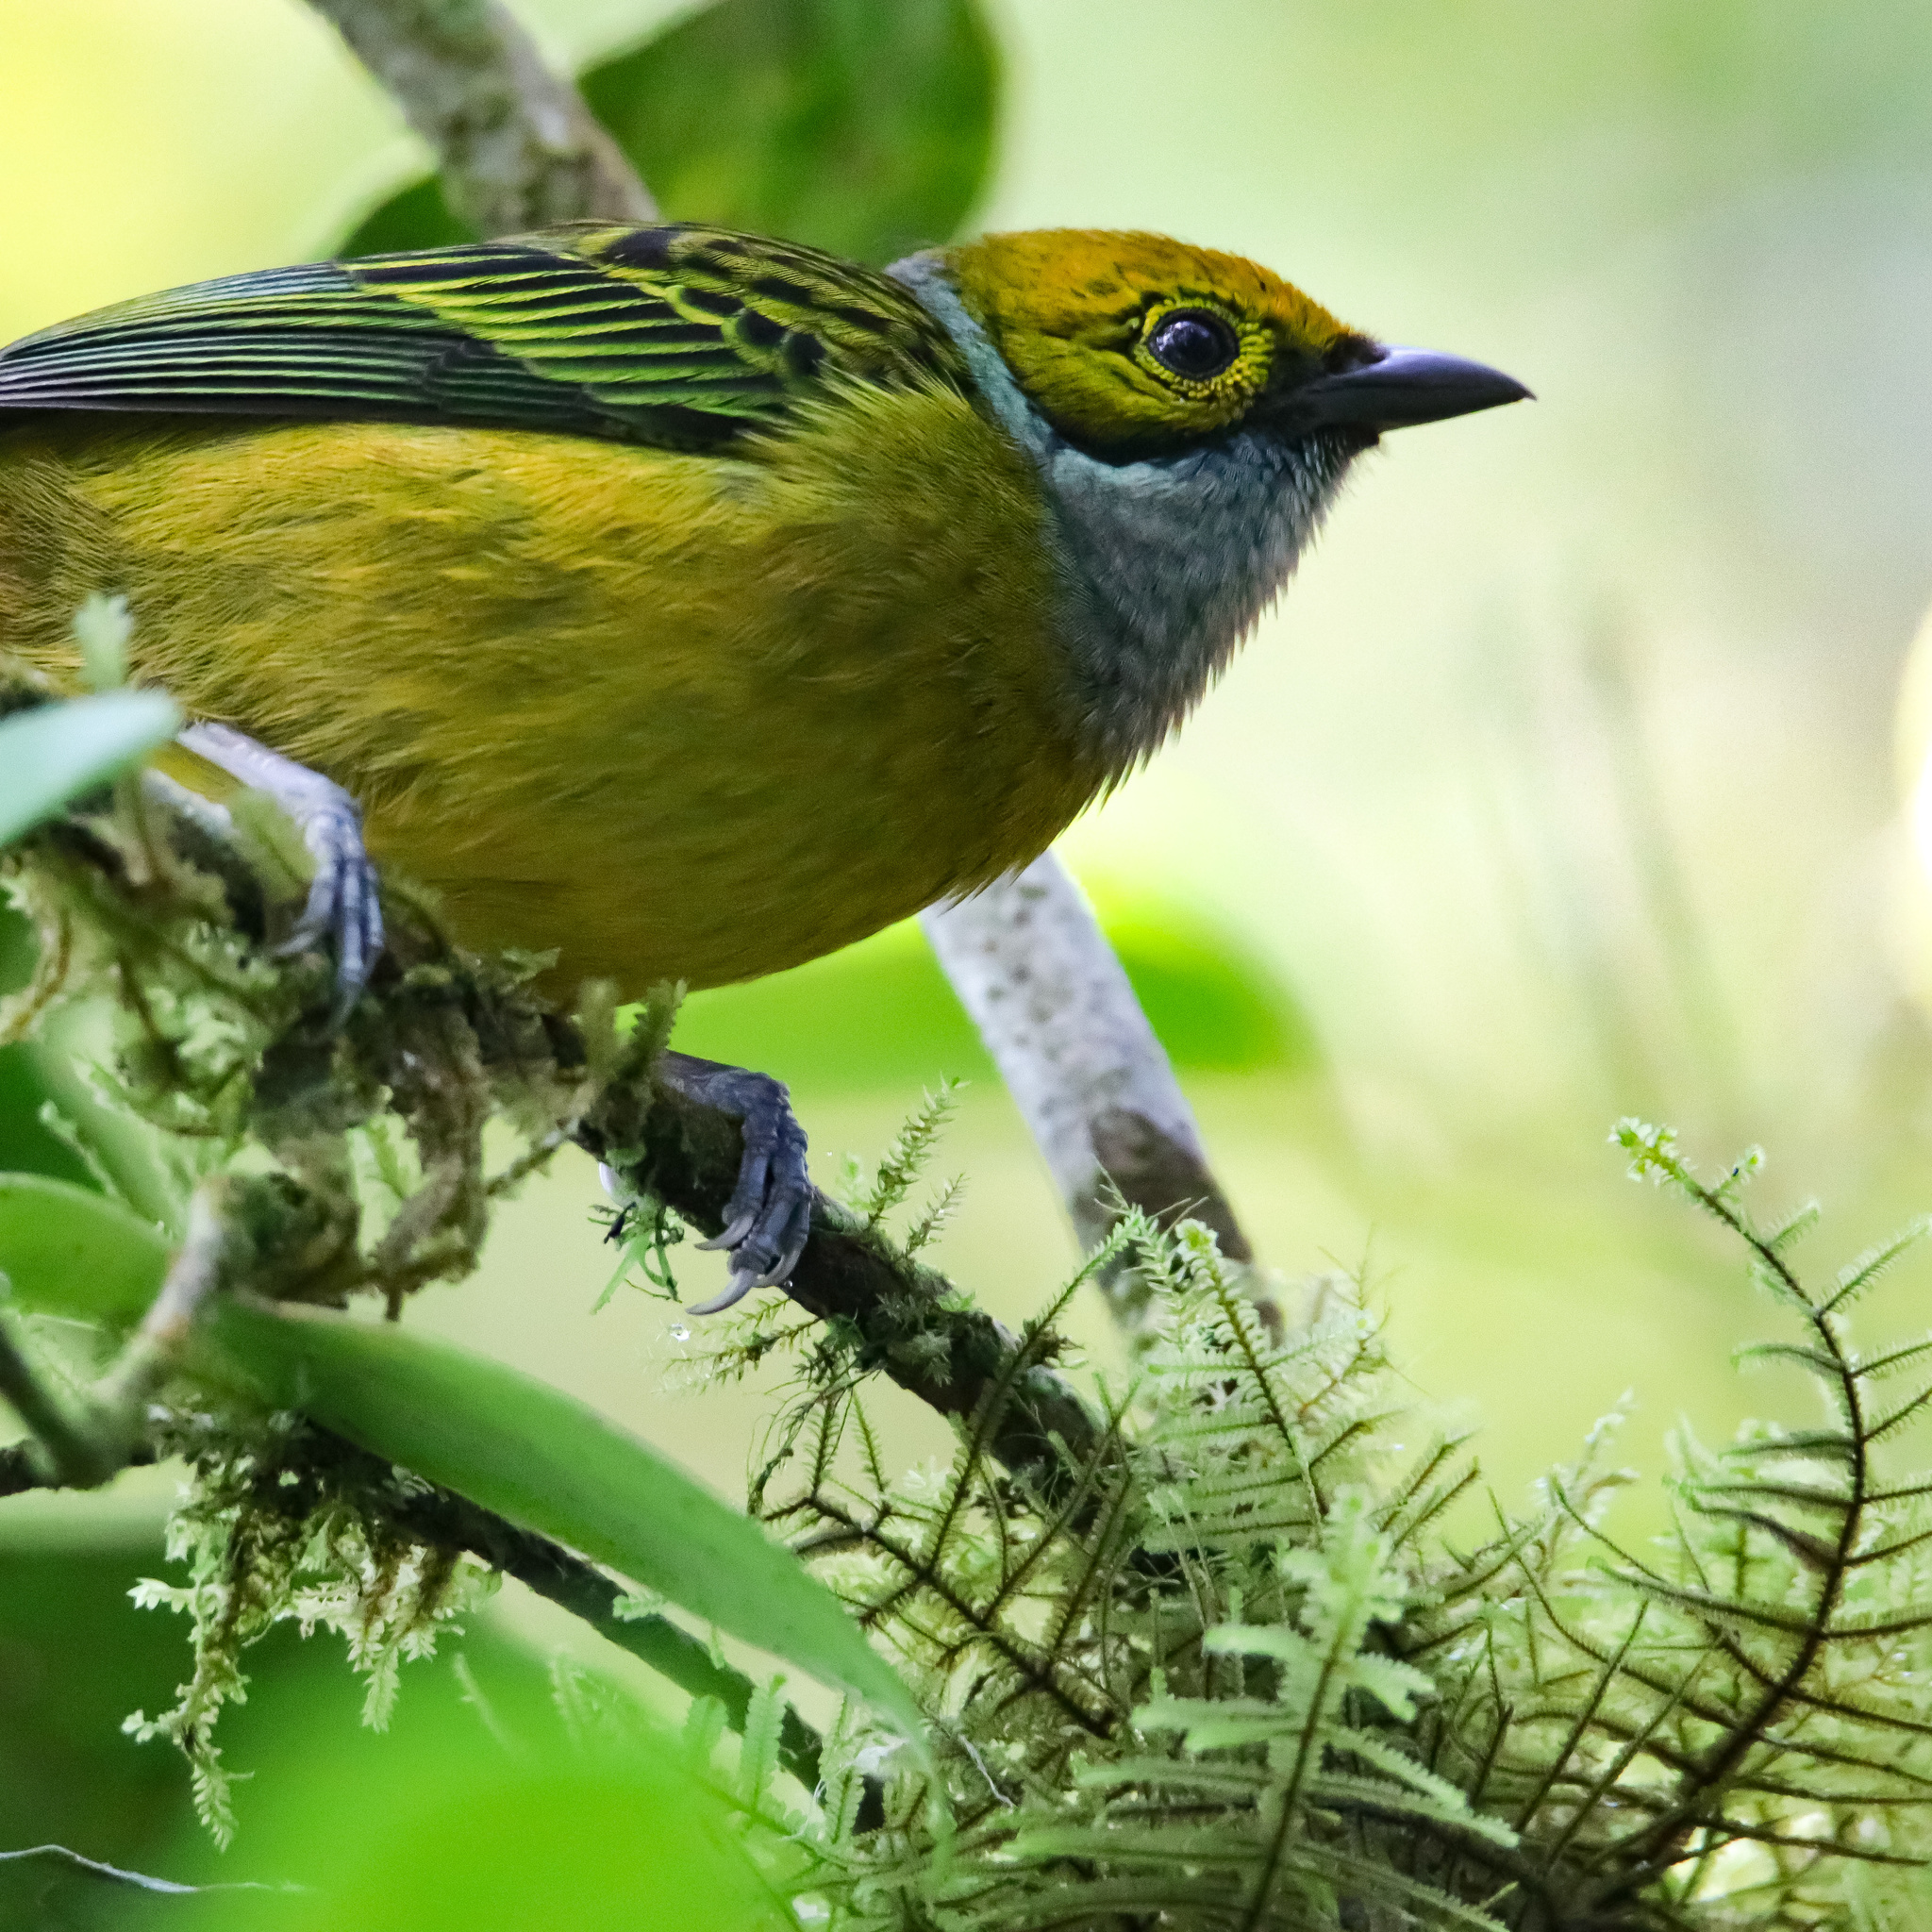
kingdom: Animalia
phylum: Chordata
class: Aves
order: Passeriformes
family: Thraupidae
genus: Tangara
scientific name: Tangara icterocephala
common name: Silver-throated tanager
